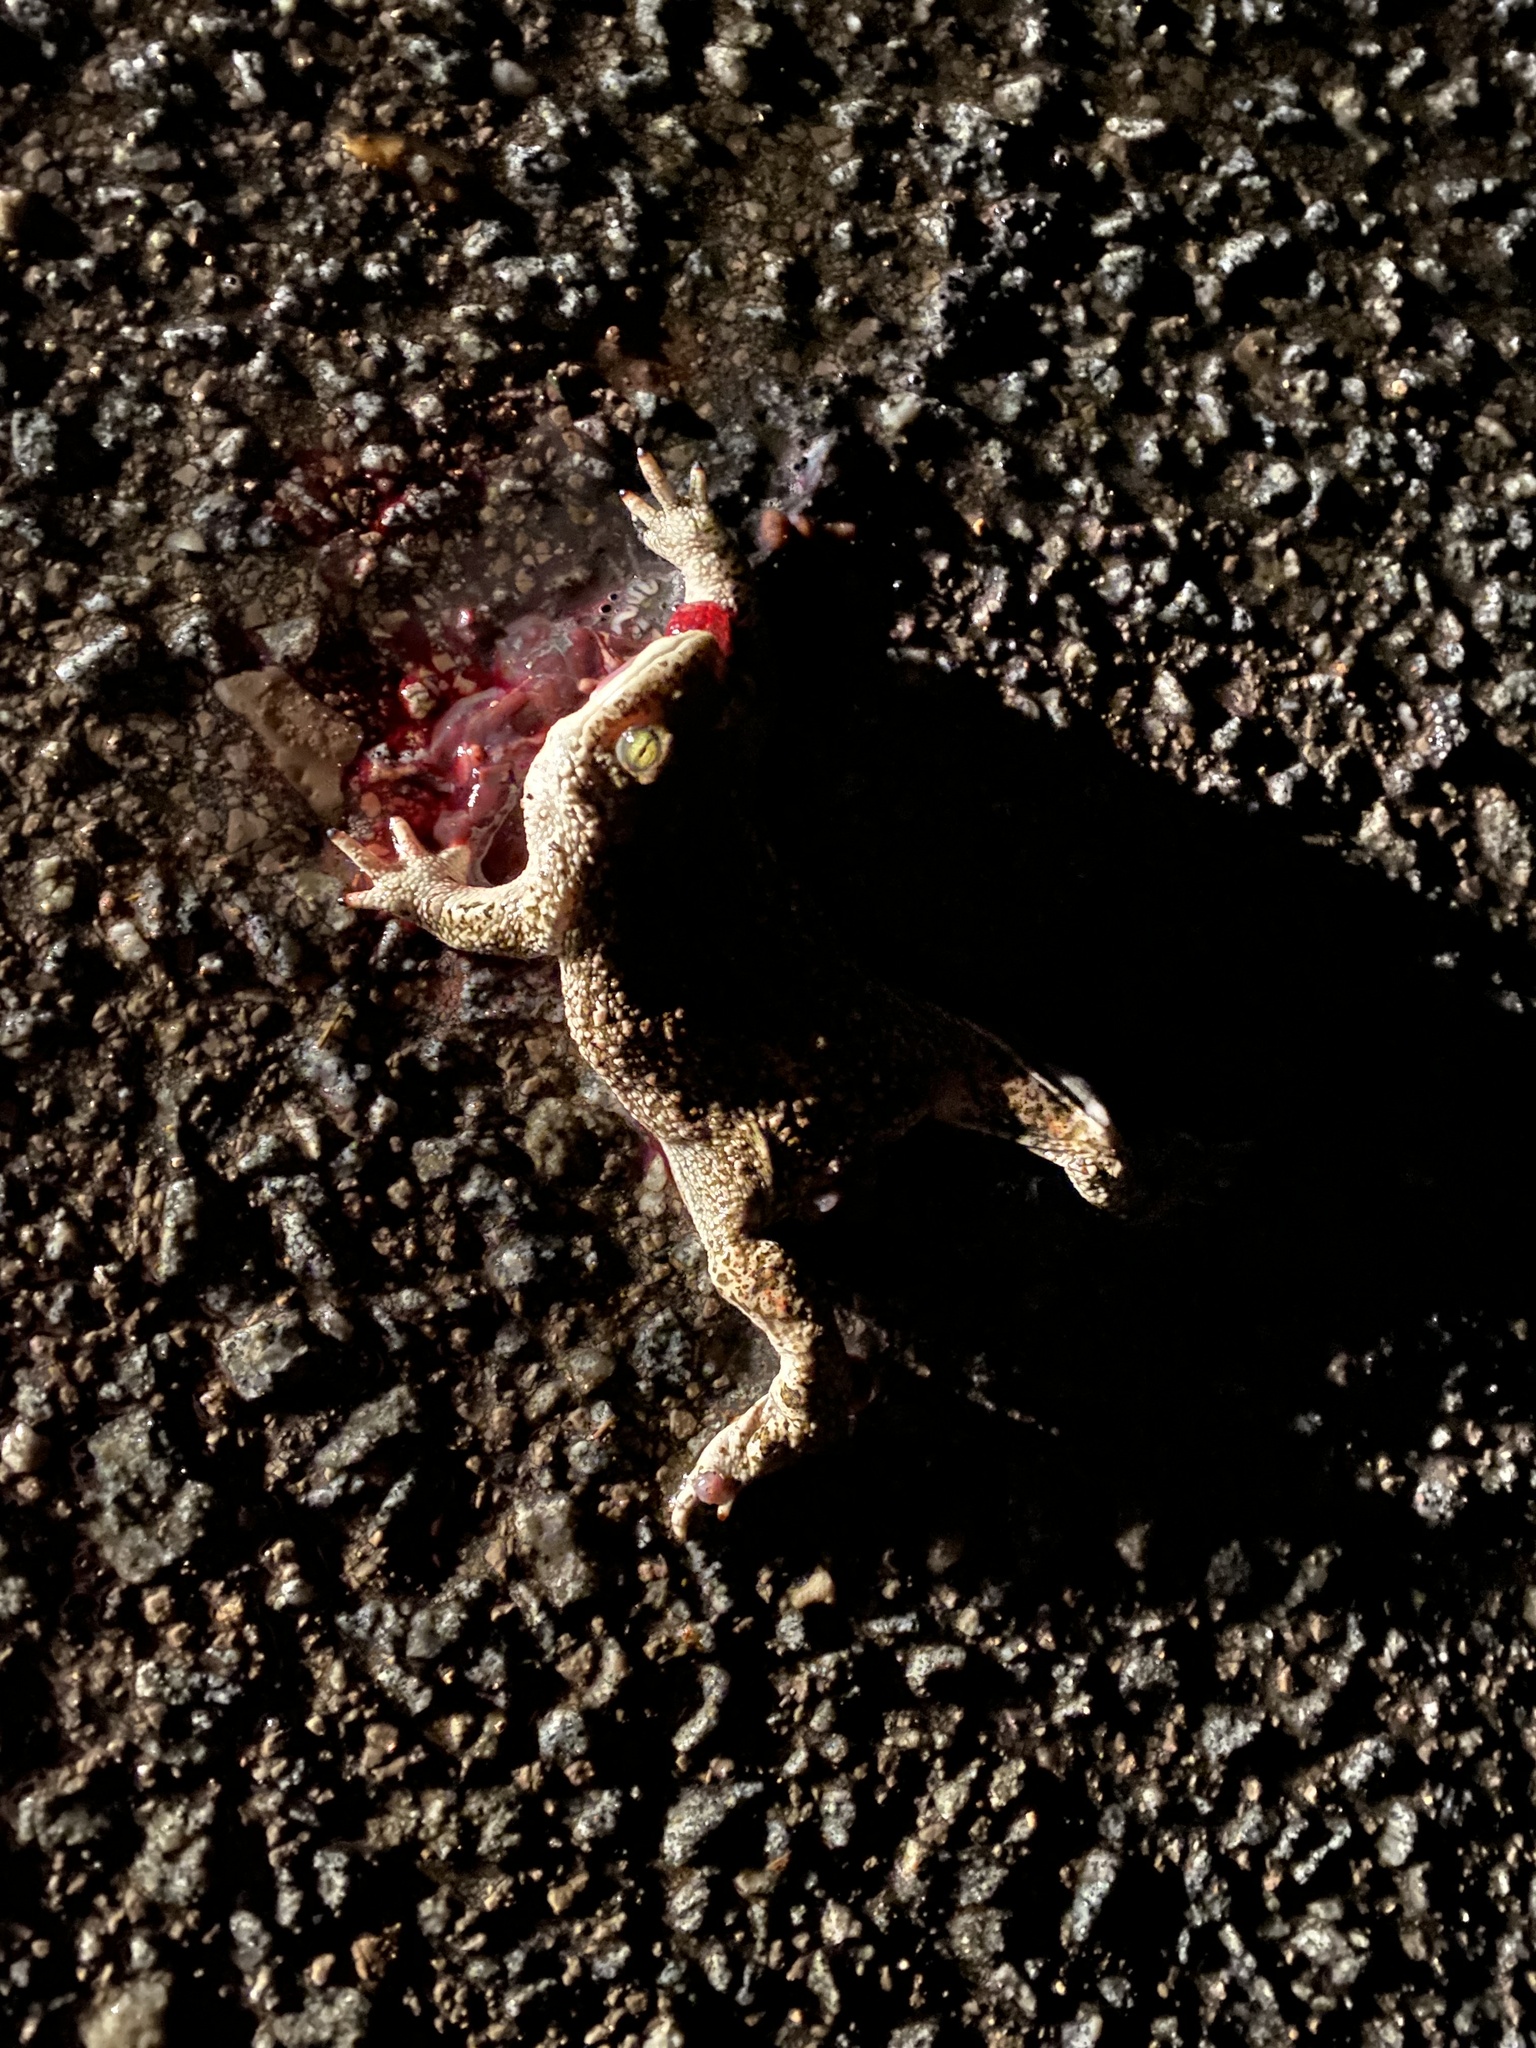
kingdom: Animalia
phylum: Chordata
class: Amphibia
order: Anura
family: Bufonidae
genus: Epidalea
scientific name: Epidalea calamita
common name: Natterjack toad
